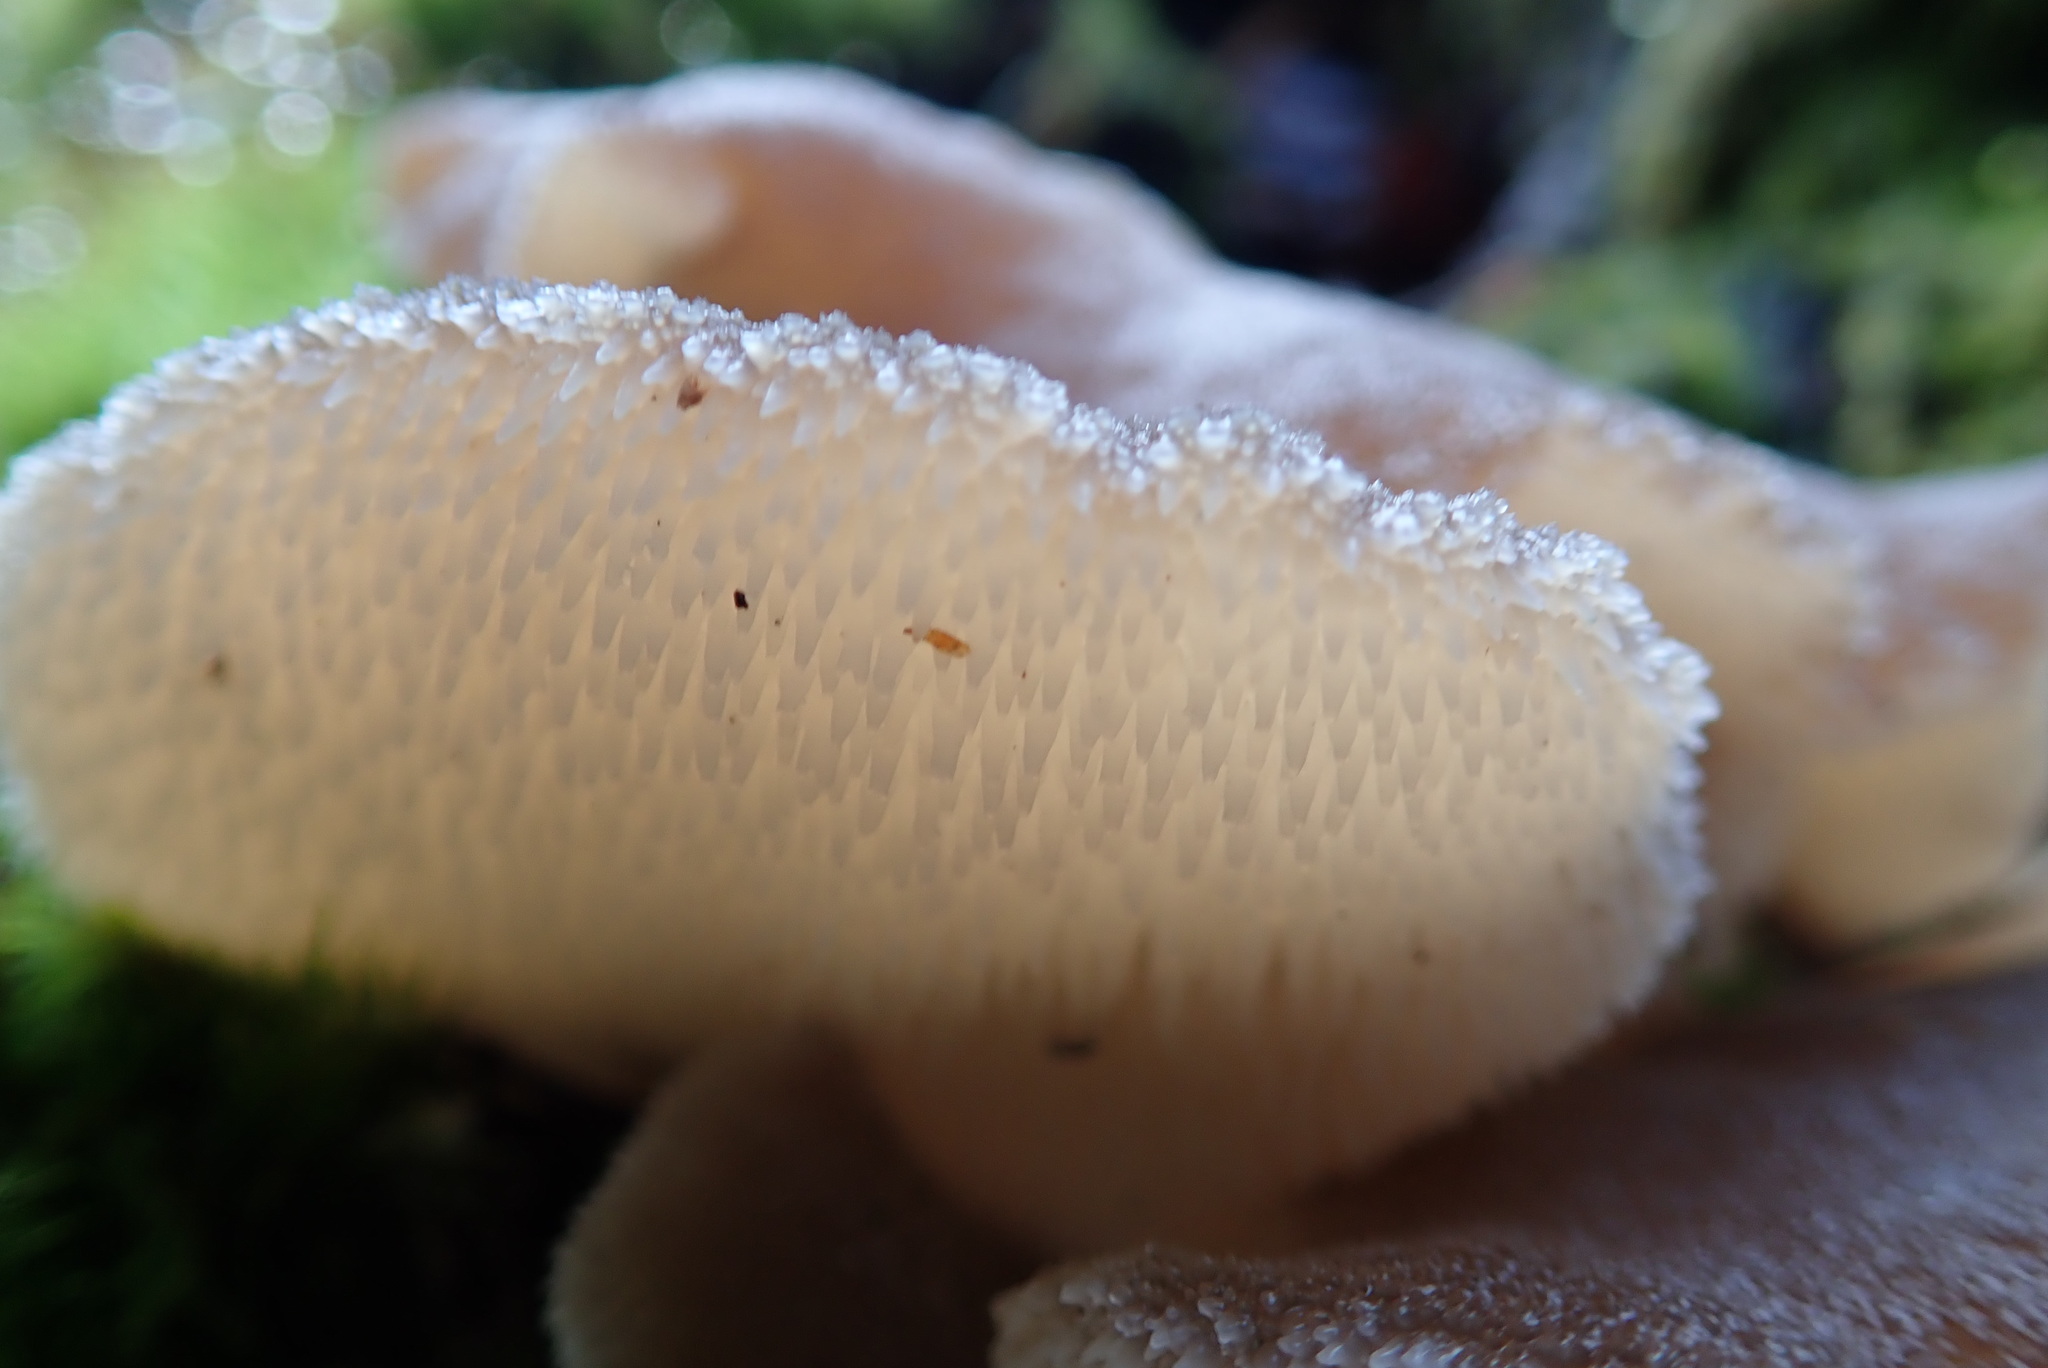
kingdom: Fungi
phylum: Basidiomycota
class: Agaricomycetes
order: Auriculariales
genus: Pseudohydnum
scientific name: Pseudohydnum gelatinosum
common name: Jelly tongue
